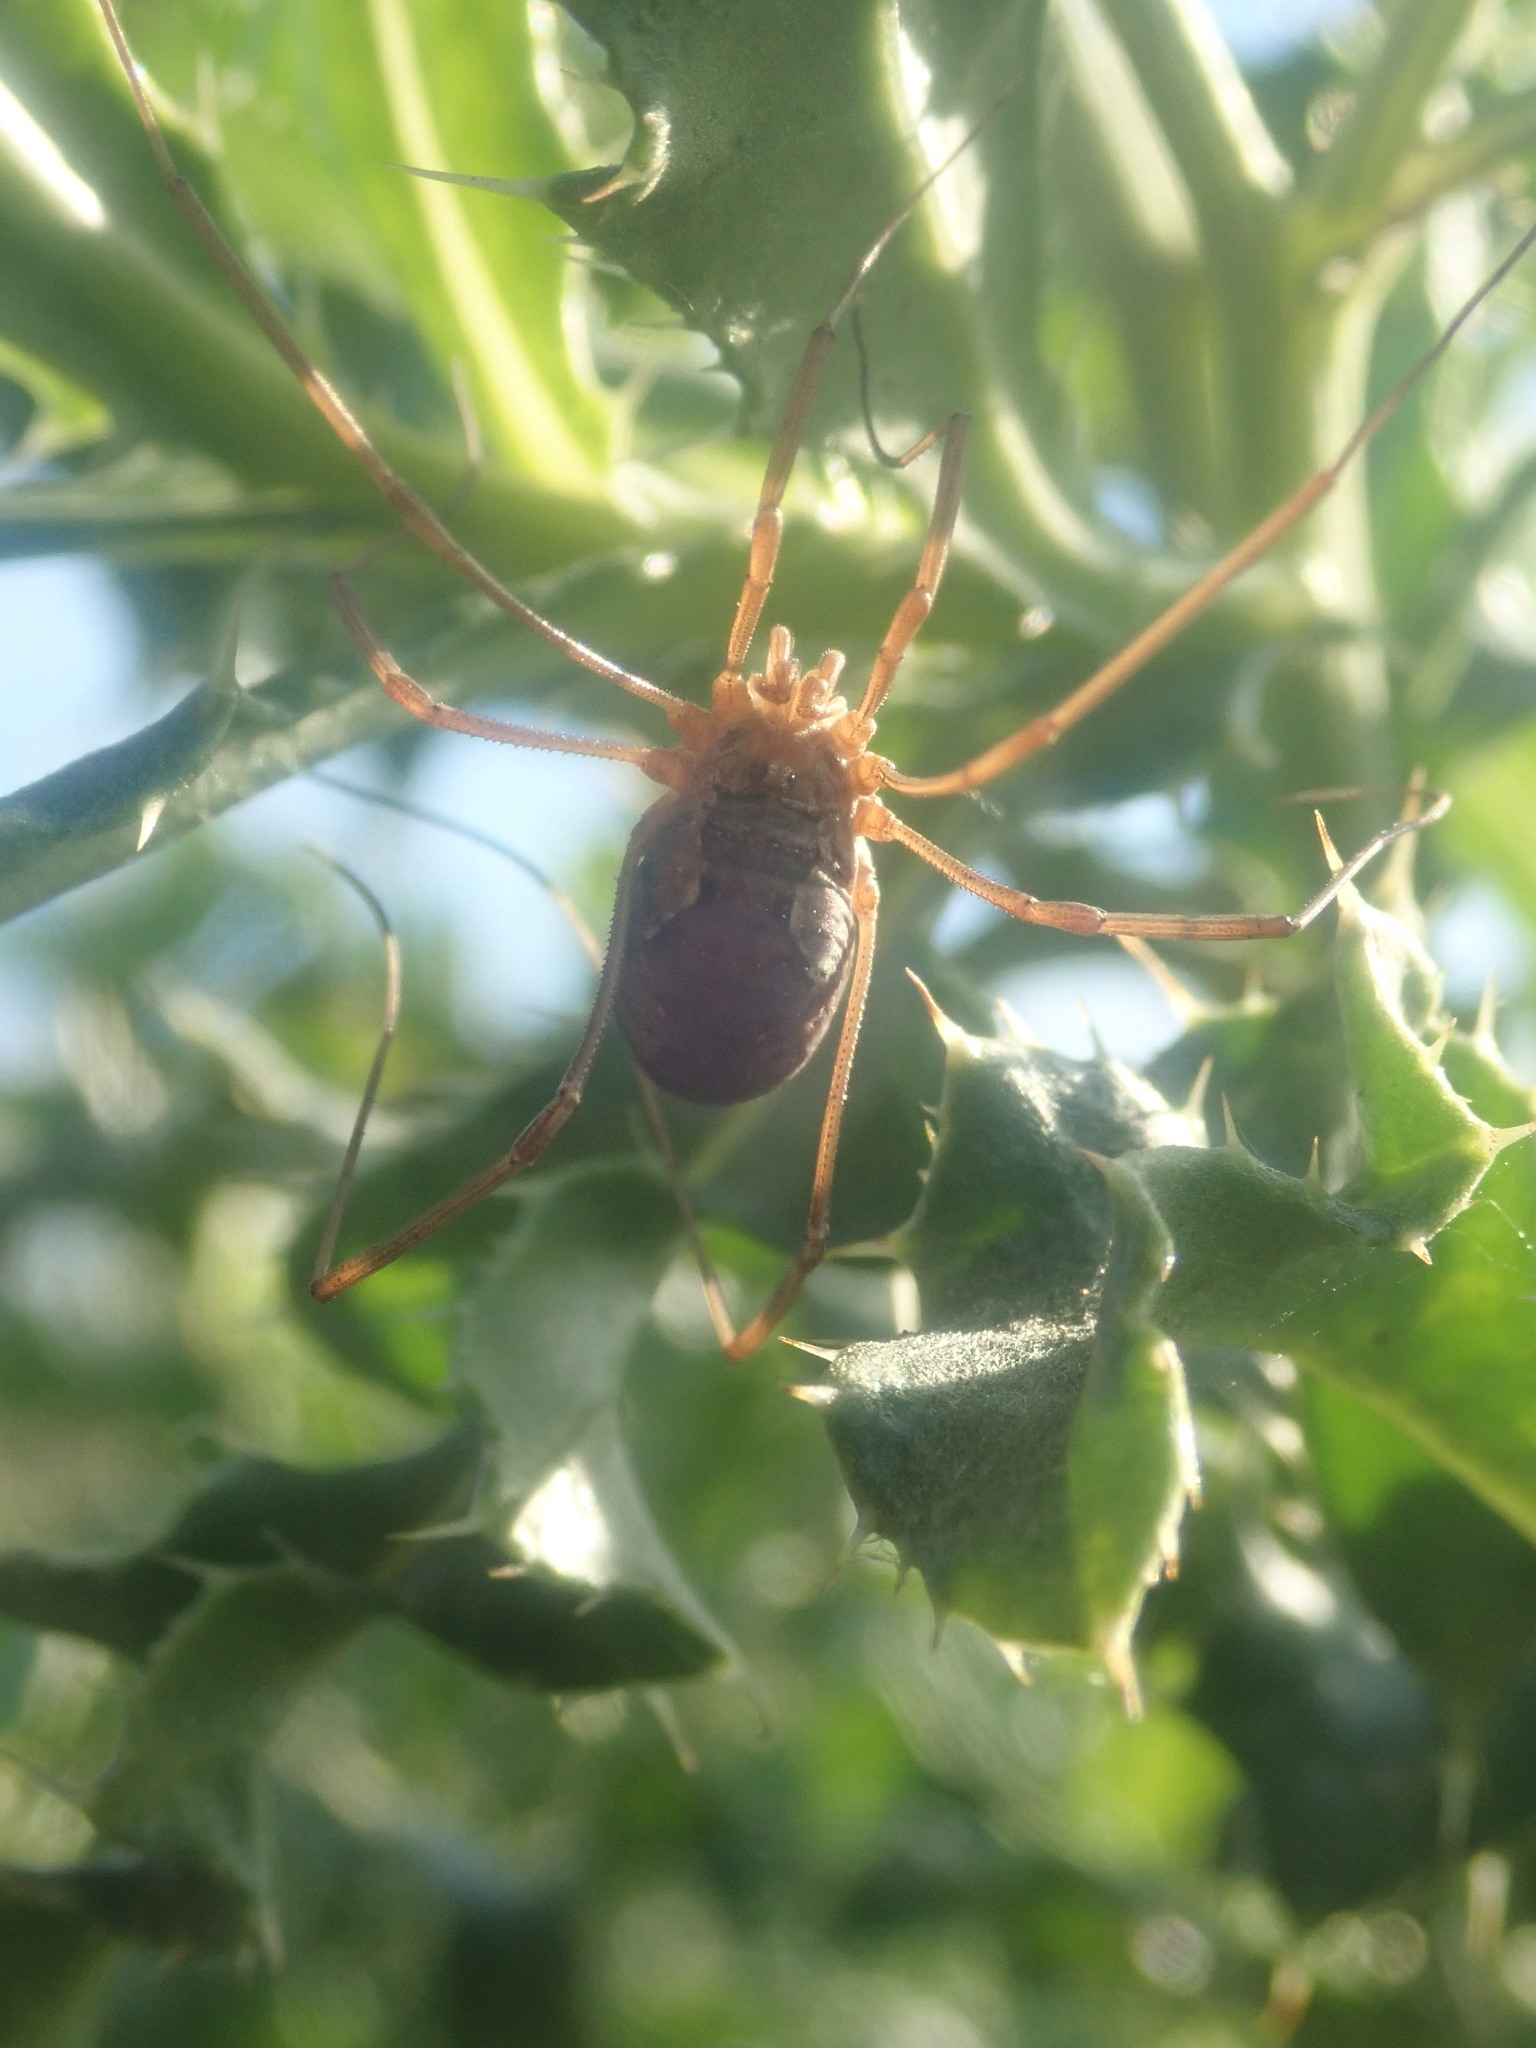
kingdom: Animalia
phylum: Arthropoda
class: Arachnida
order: Opiliones
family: Phalangiidae
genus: Phalangium
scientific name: Phalangium opilio
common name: Daddy longleg
